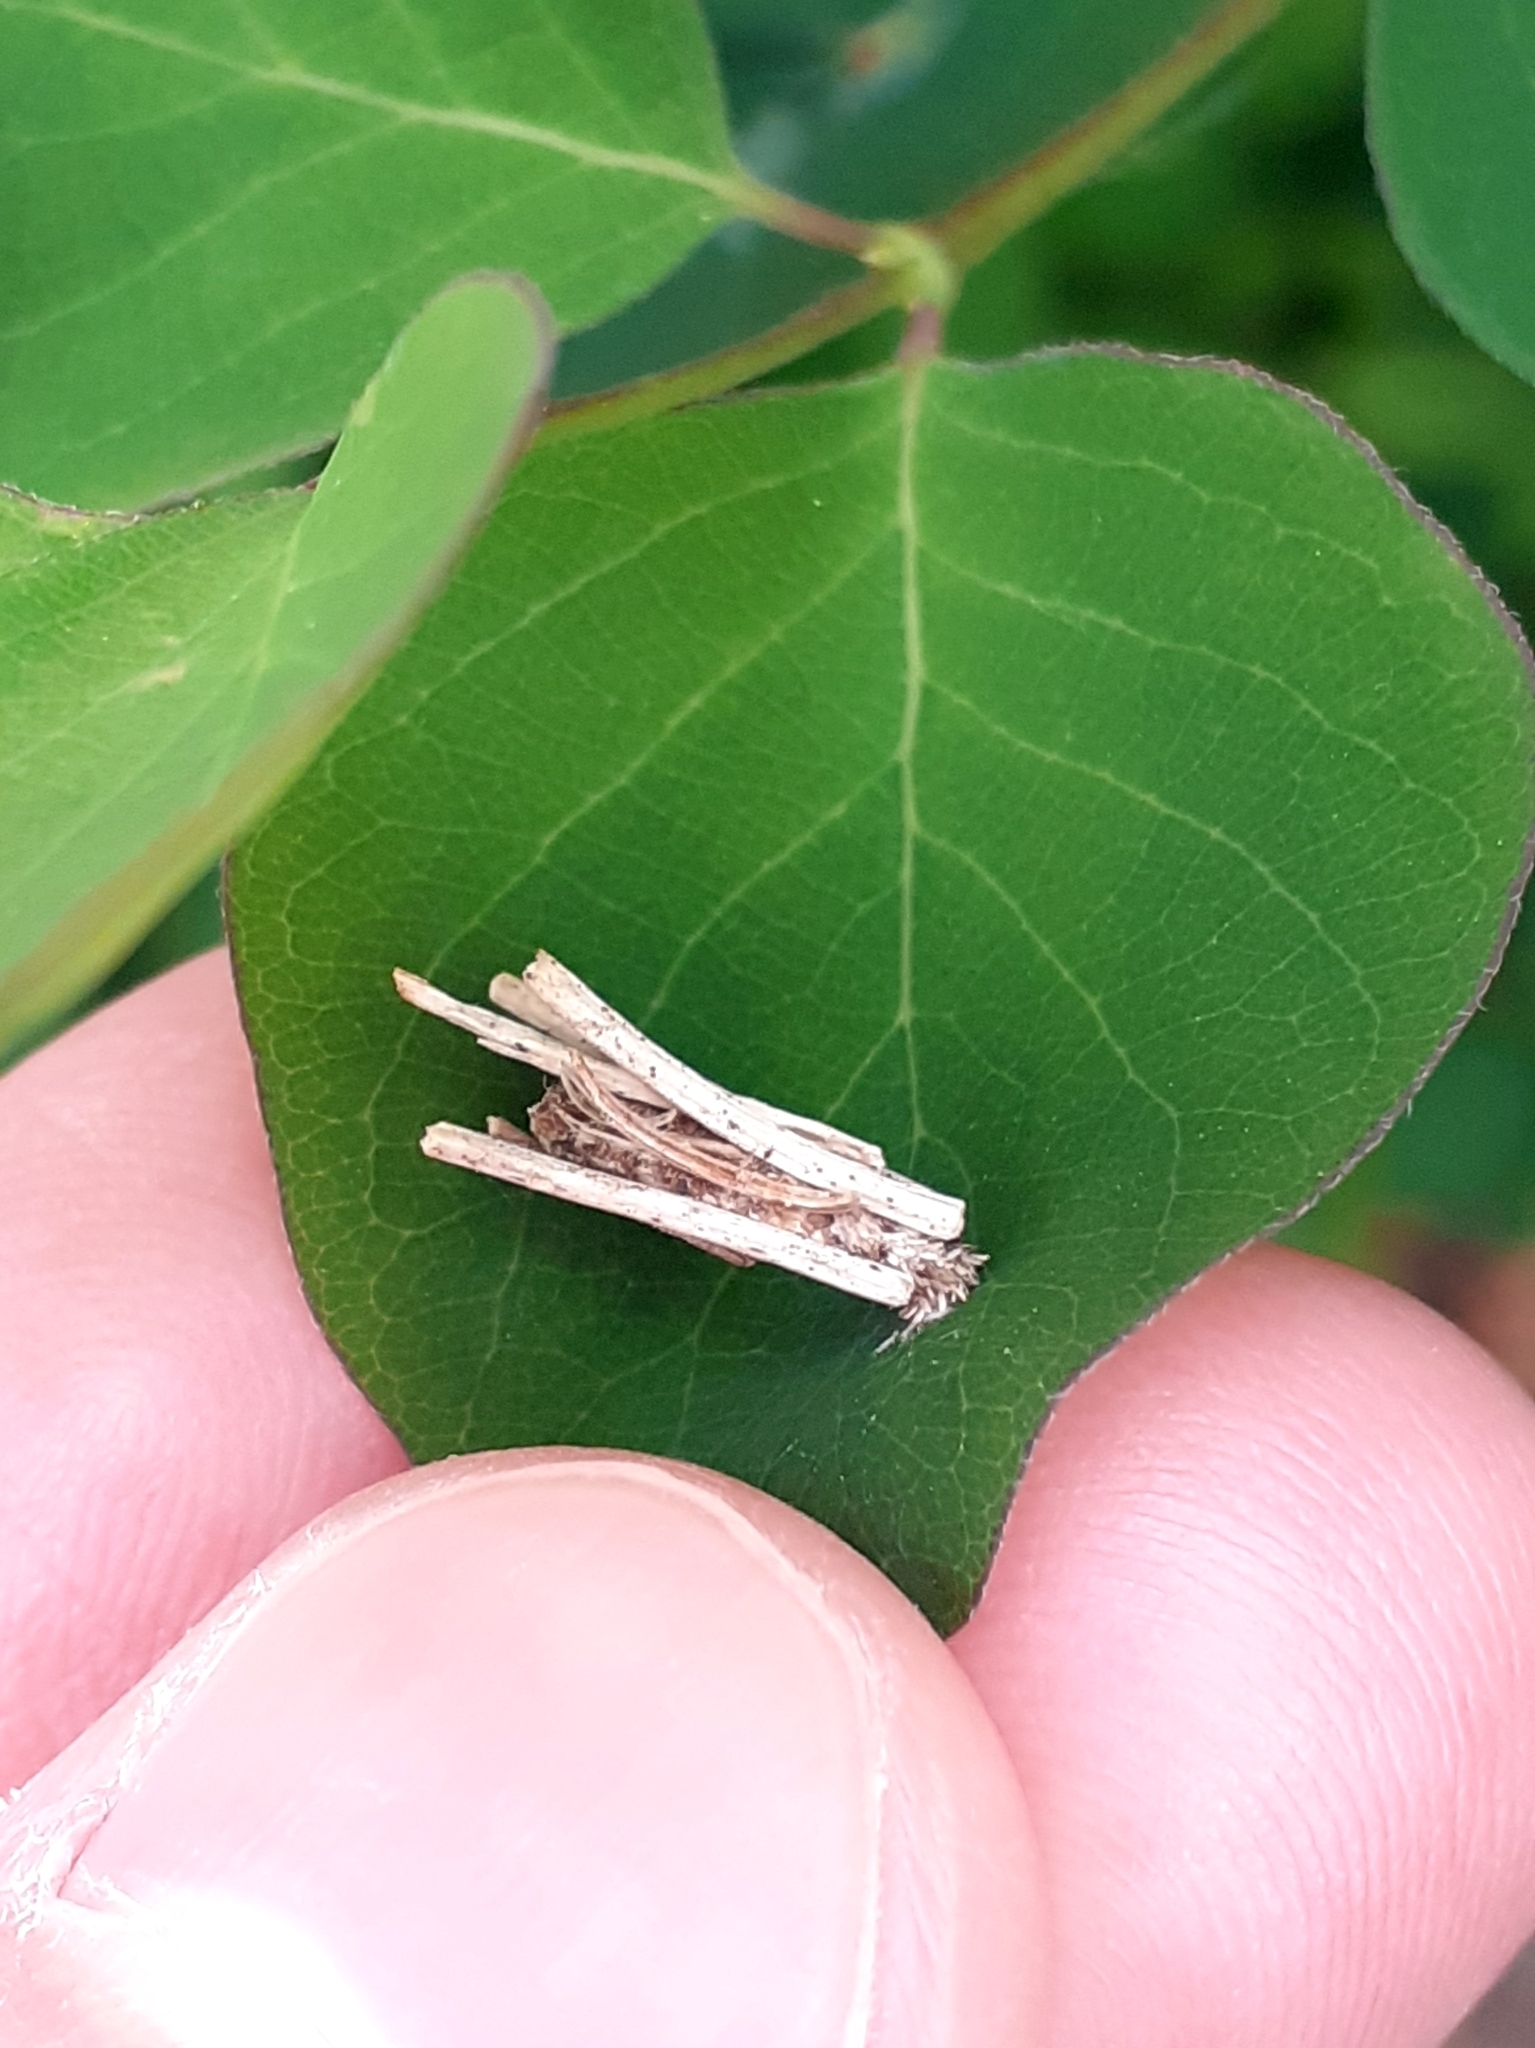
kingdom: Animalia
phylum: Arthropoda
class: Insecta
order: Lepidoptera
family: Psychidae
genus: Psyche
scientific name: Psyche casta
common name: Common sweep
